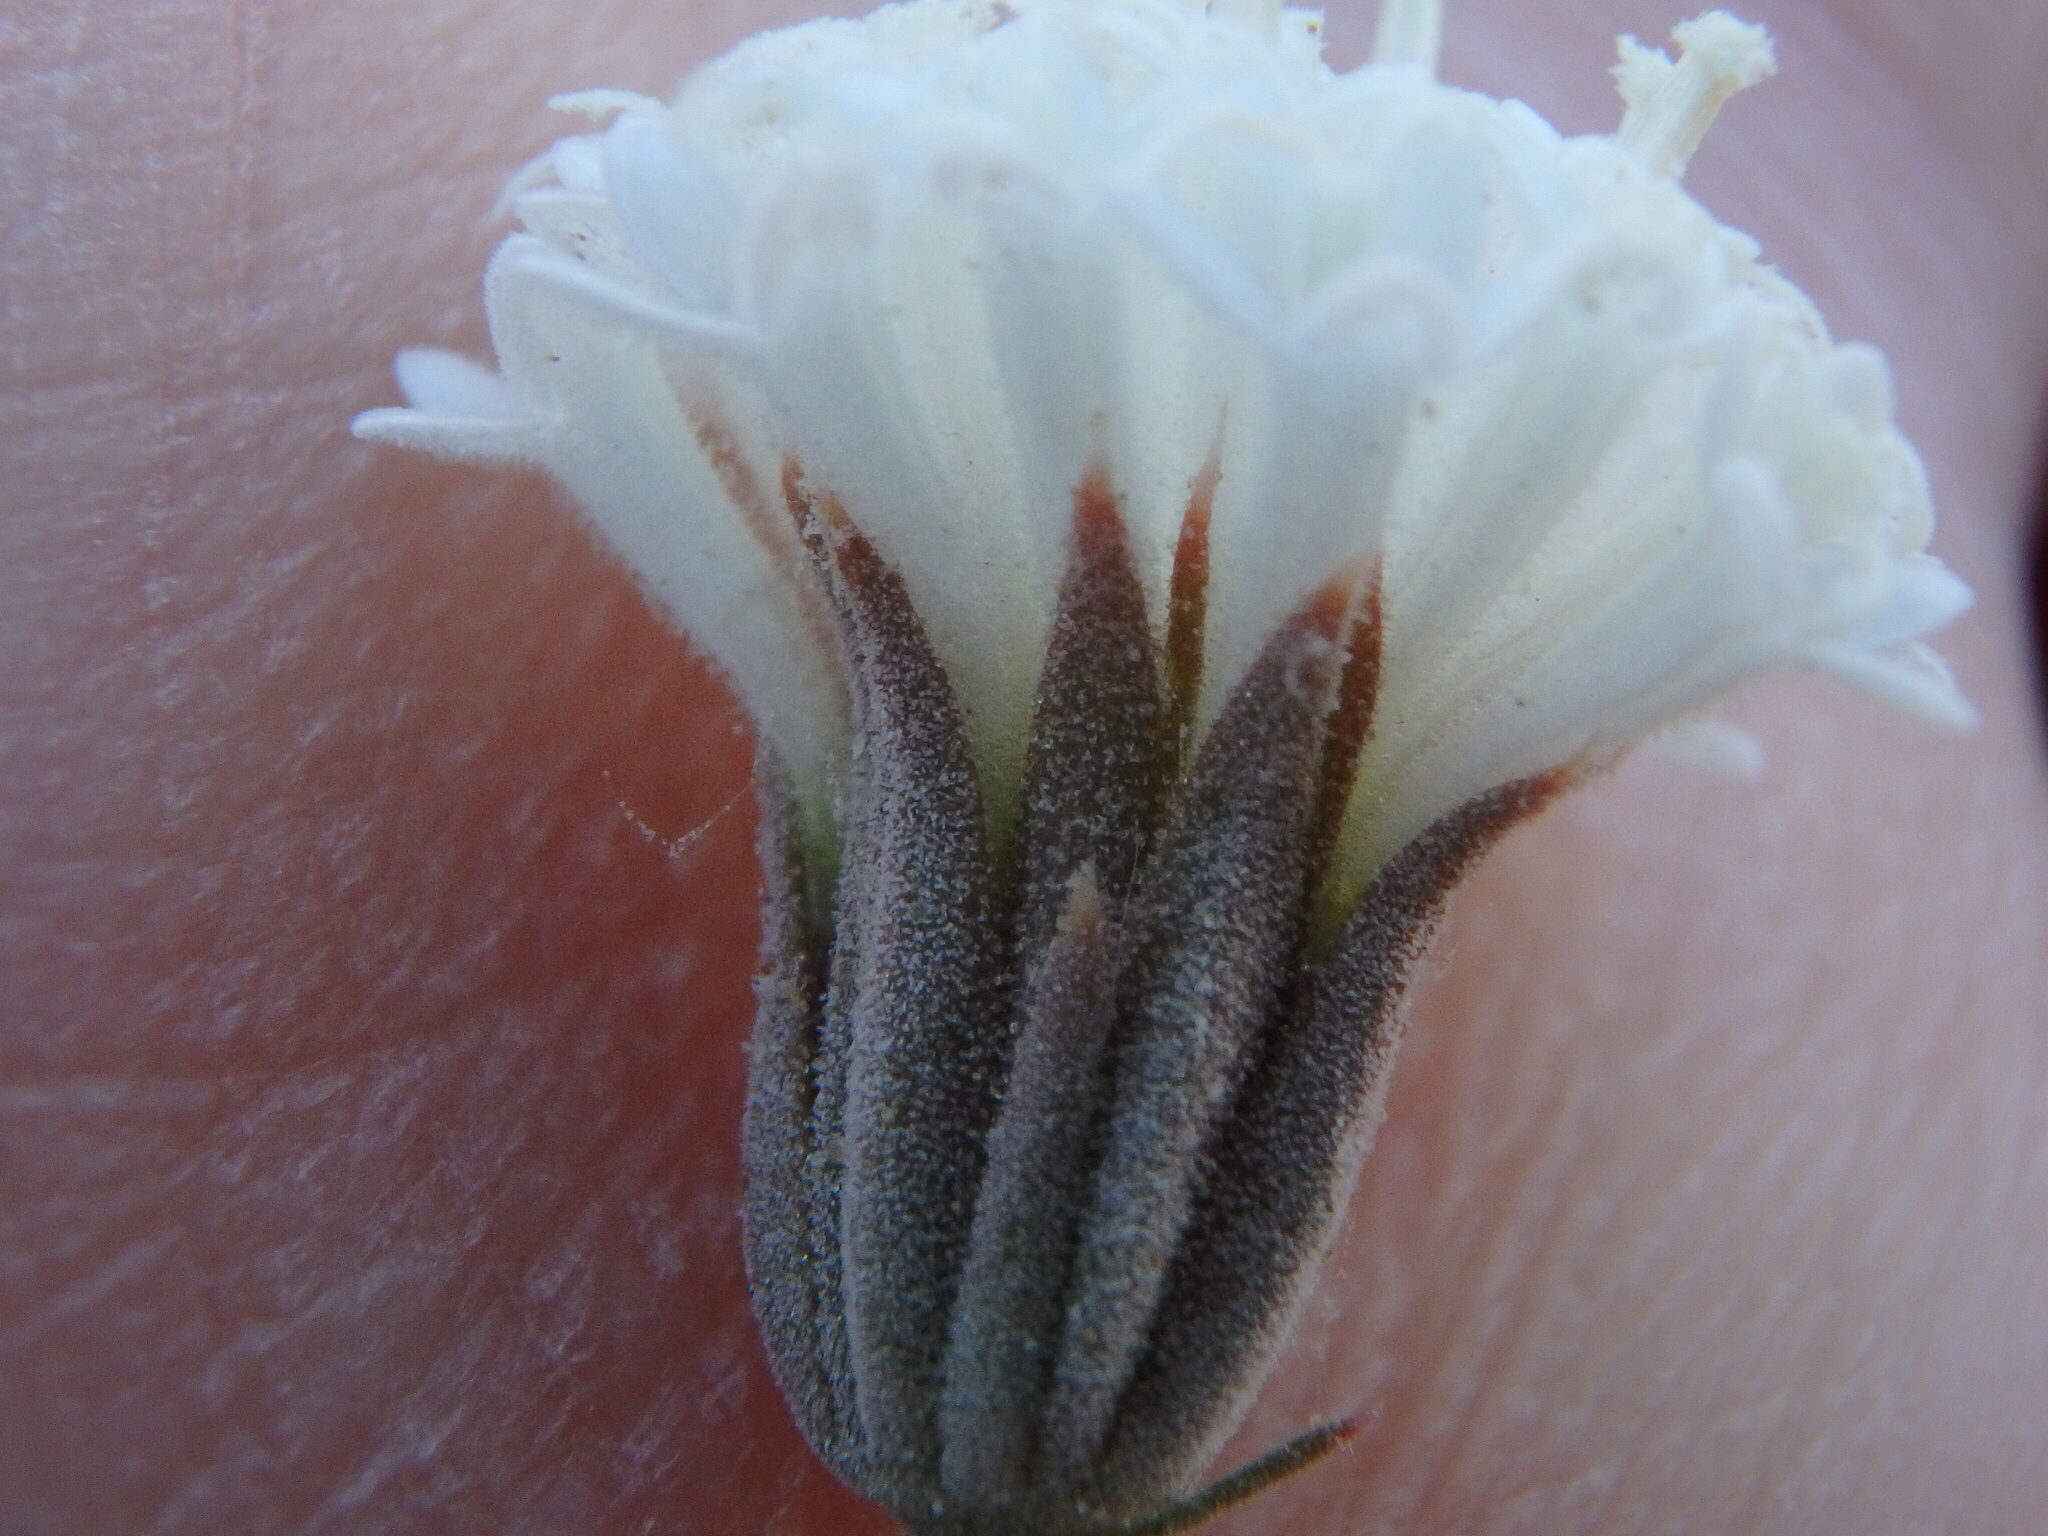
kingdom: Plantae
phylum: Tracheophyta
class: Magnoliopsida
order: Asterales
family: Asteraceae
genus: Chaenactis
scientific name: Chaenactis carphoclinia
